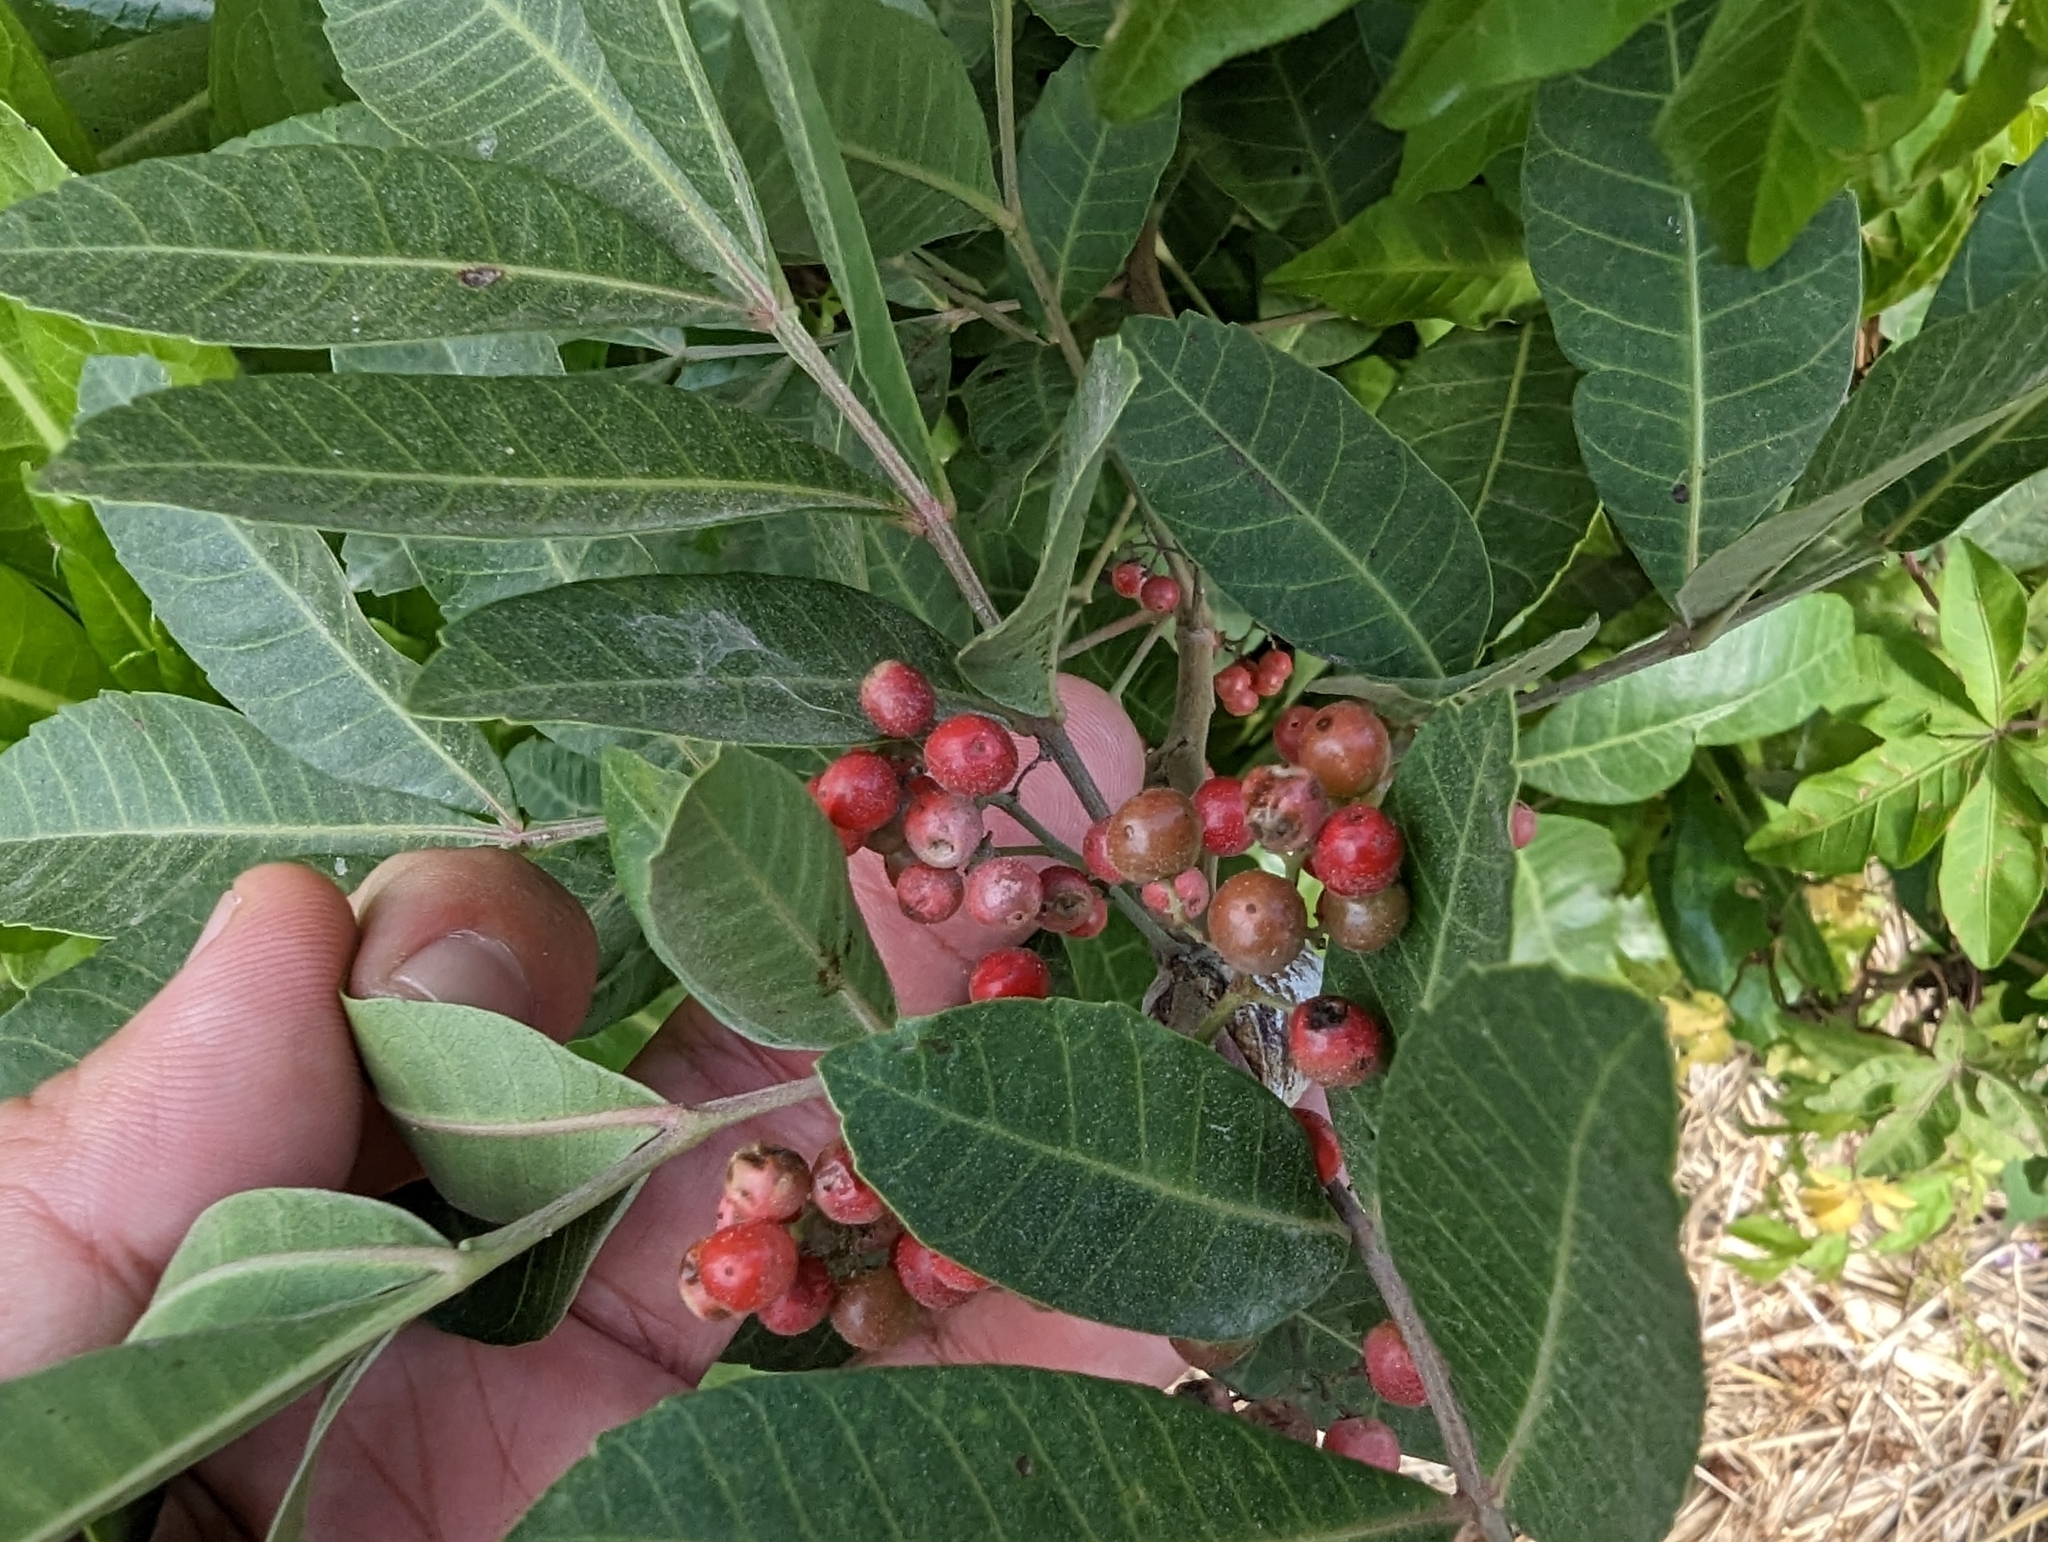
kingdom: Plantae
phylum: Tracheophyta
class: Magnoliopsida
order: Sapindales
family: Anacardiaceae
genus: Schinus
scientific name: Schinus terebinthifolia
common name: Brazilian peppertree
